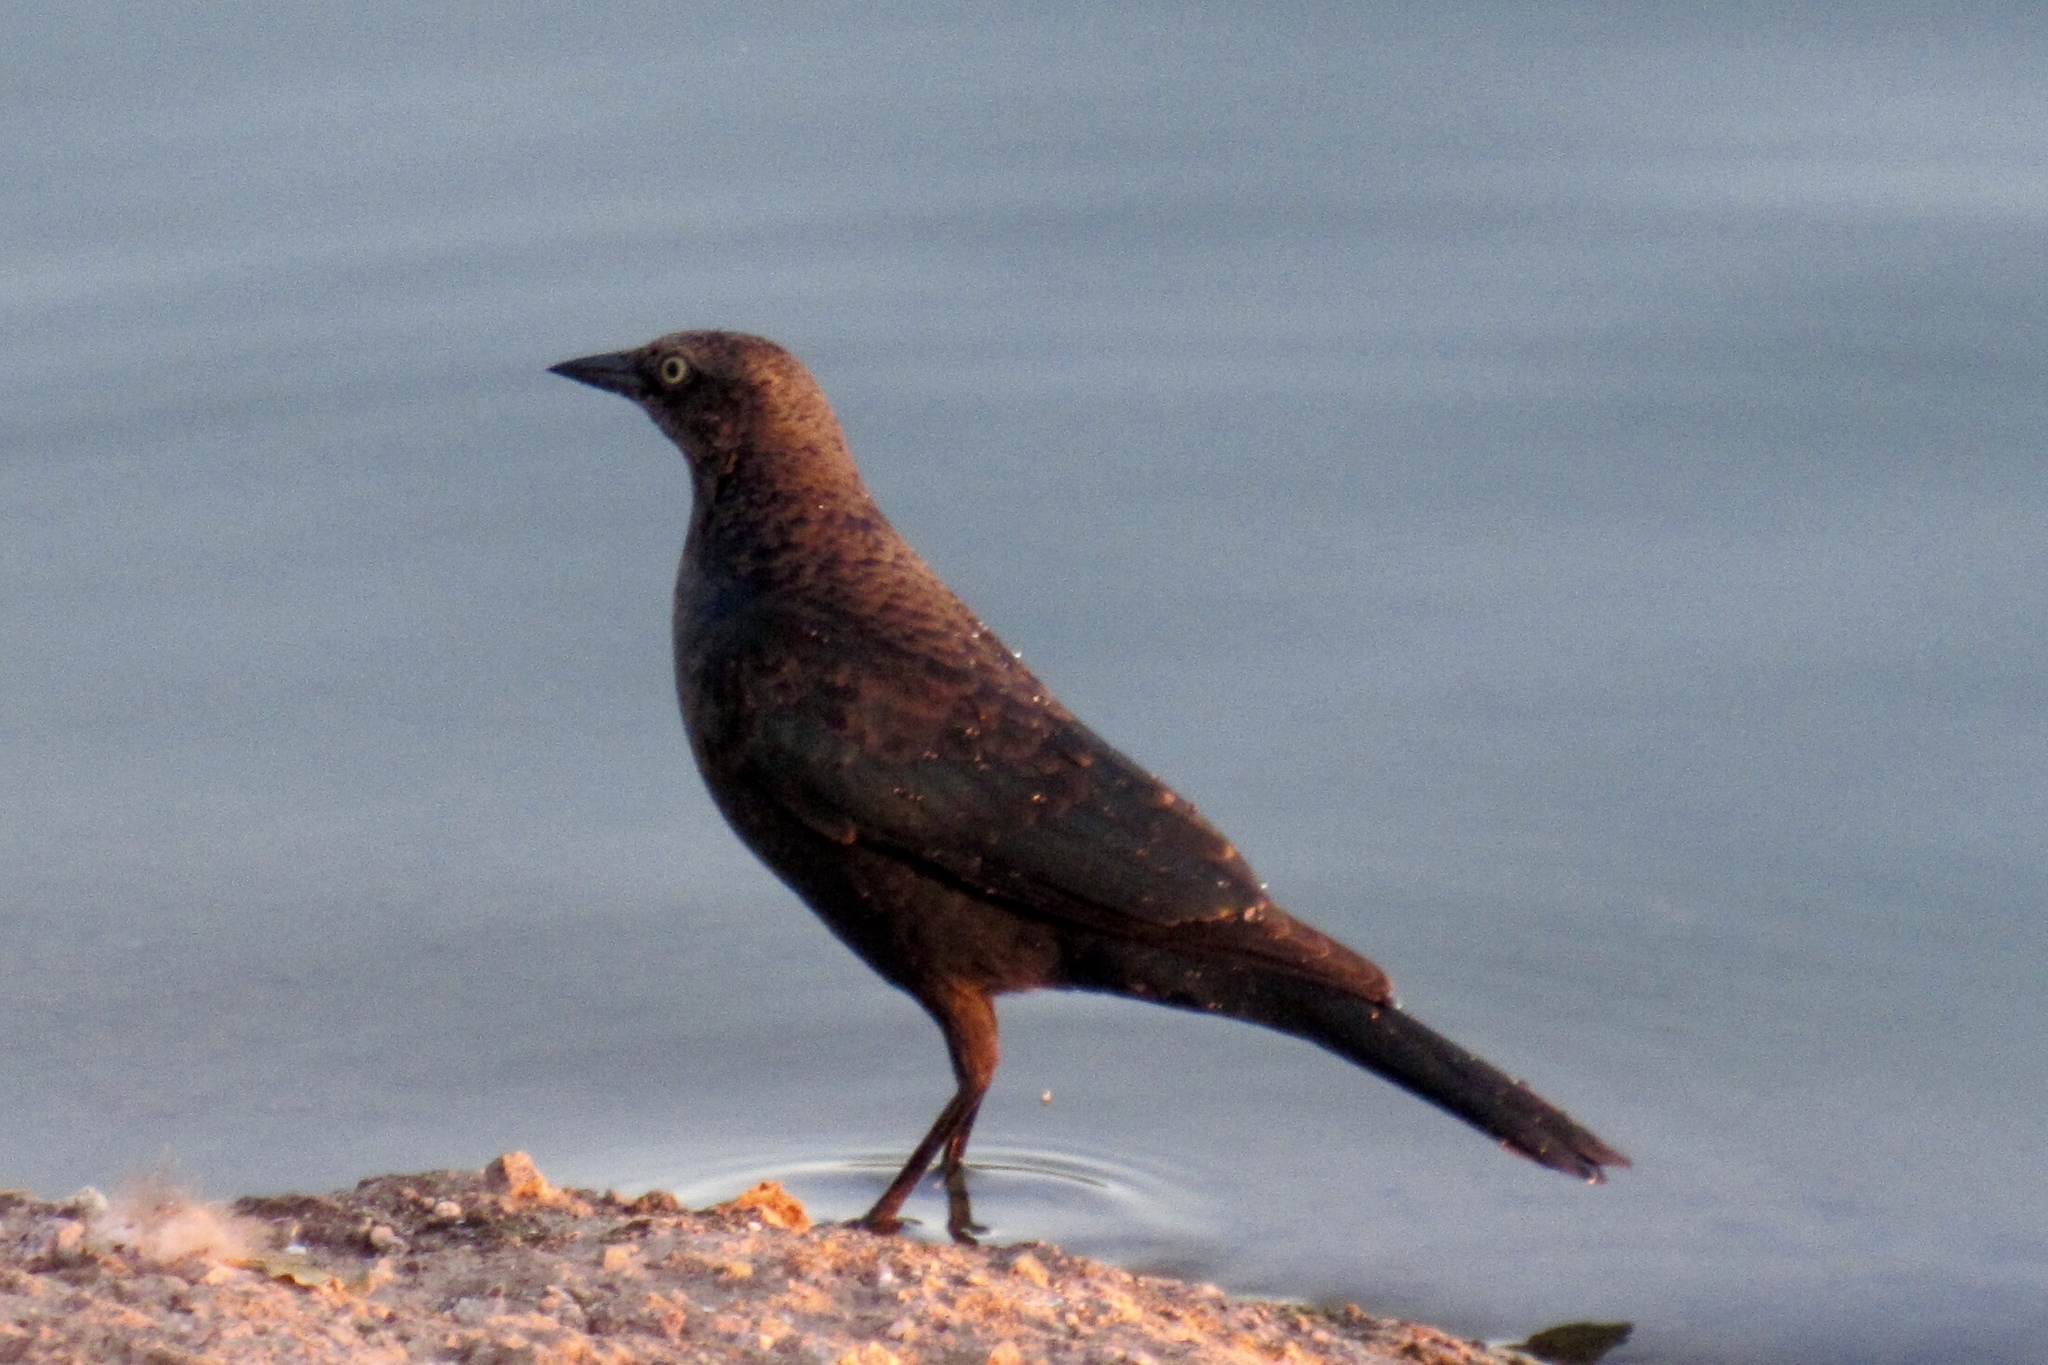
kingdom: Animalia
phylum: Chordata
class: Aves
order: Passeriformes
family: Icteridae
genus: Euphagus
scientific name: Euphagus cyanocephalus
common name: Brewer's blackbird
